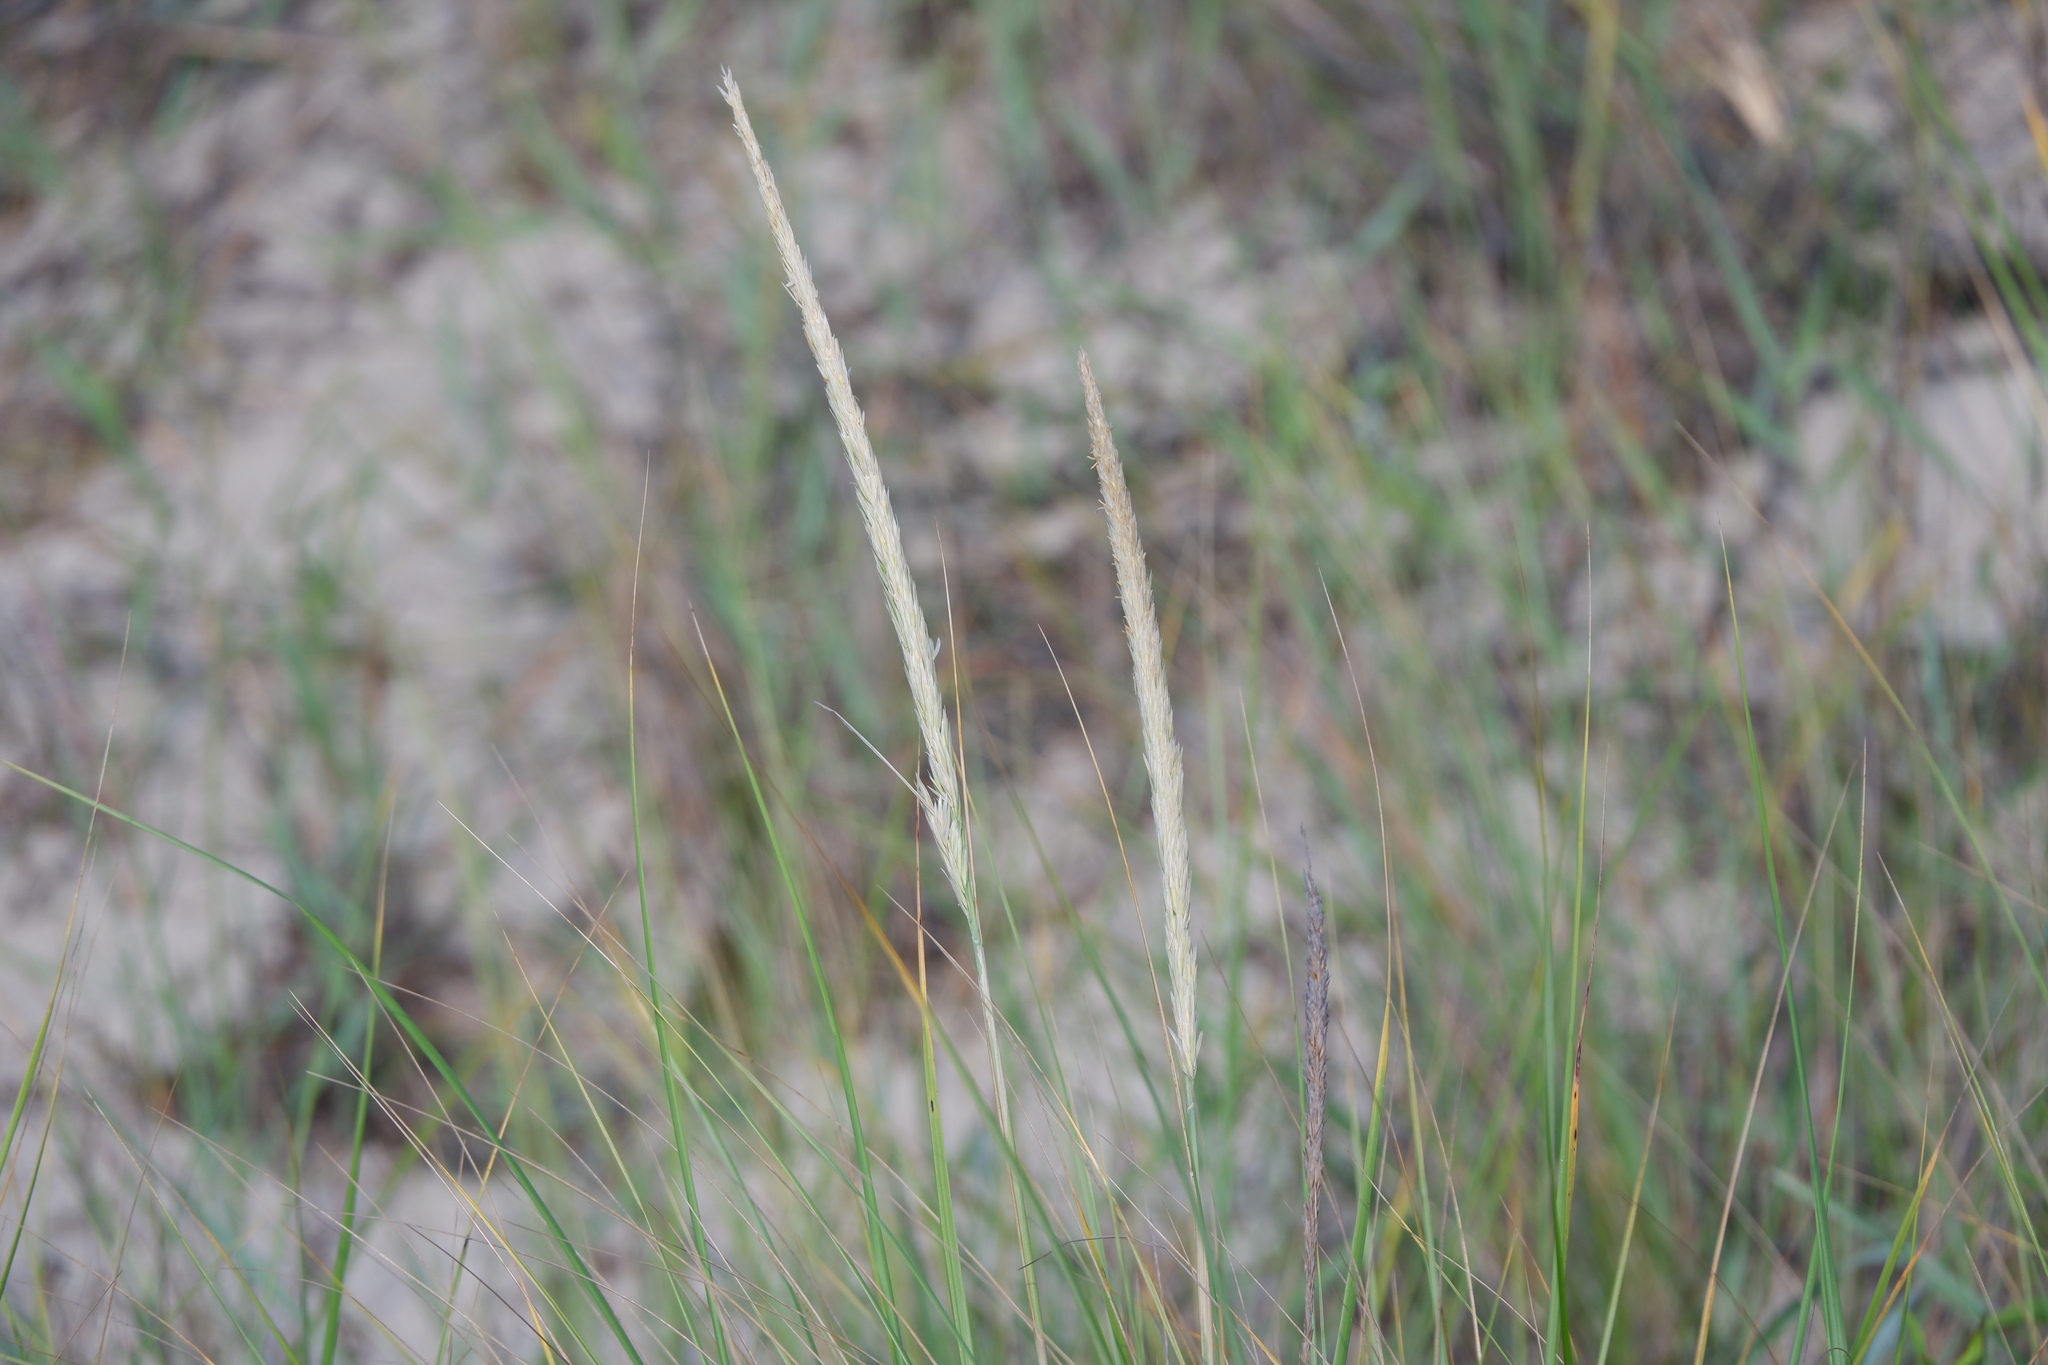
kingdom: Plantae
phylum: Tracheophyta
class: Liliopsida
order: Poales
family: Poaceae
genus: Calamagrostis
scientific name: Calamagrostis breviligulata
